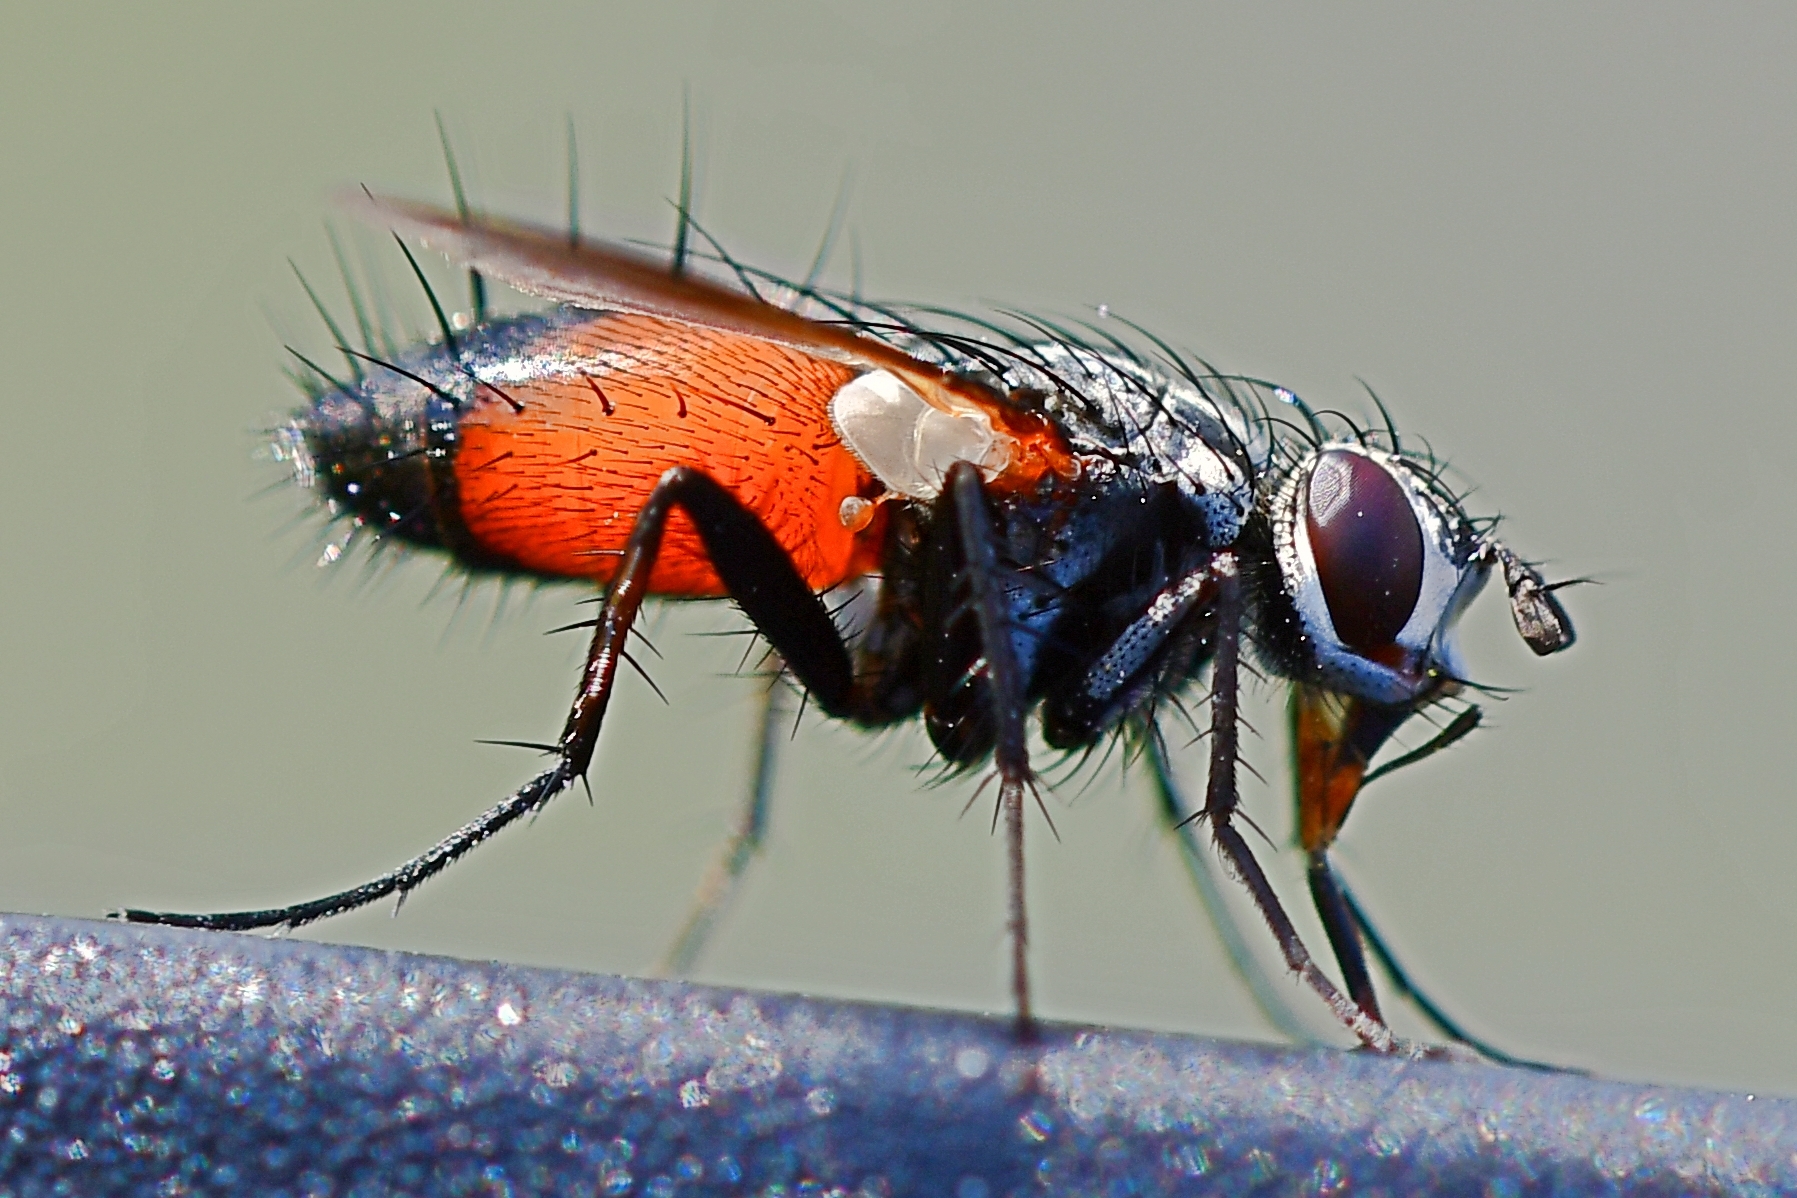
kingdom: Animalia
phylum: Arthropoda
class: Insecta
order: Diptera
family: Tachinidae
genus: Eriothrix
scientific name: Eriothrix rufomaculatus
